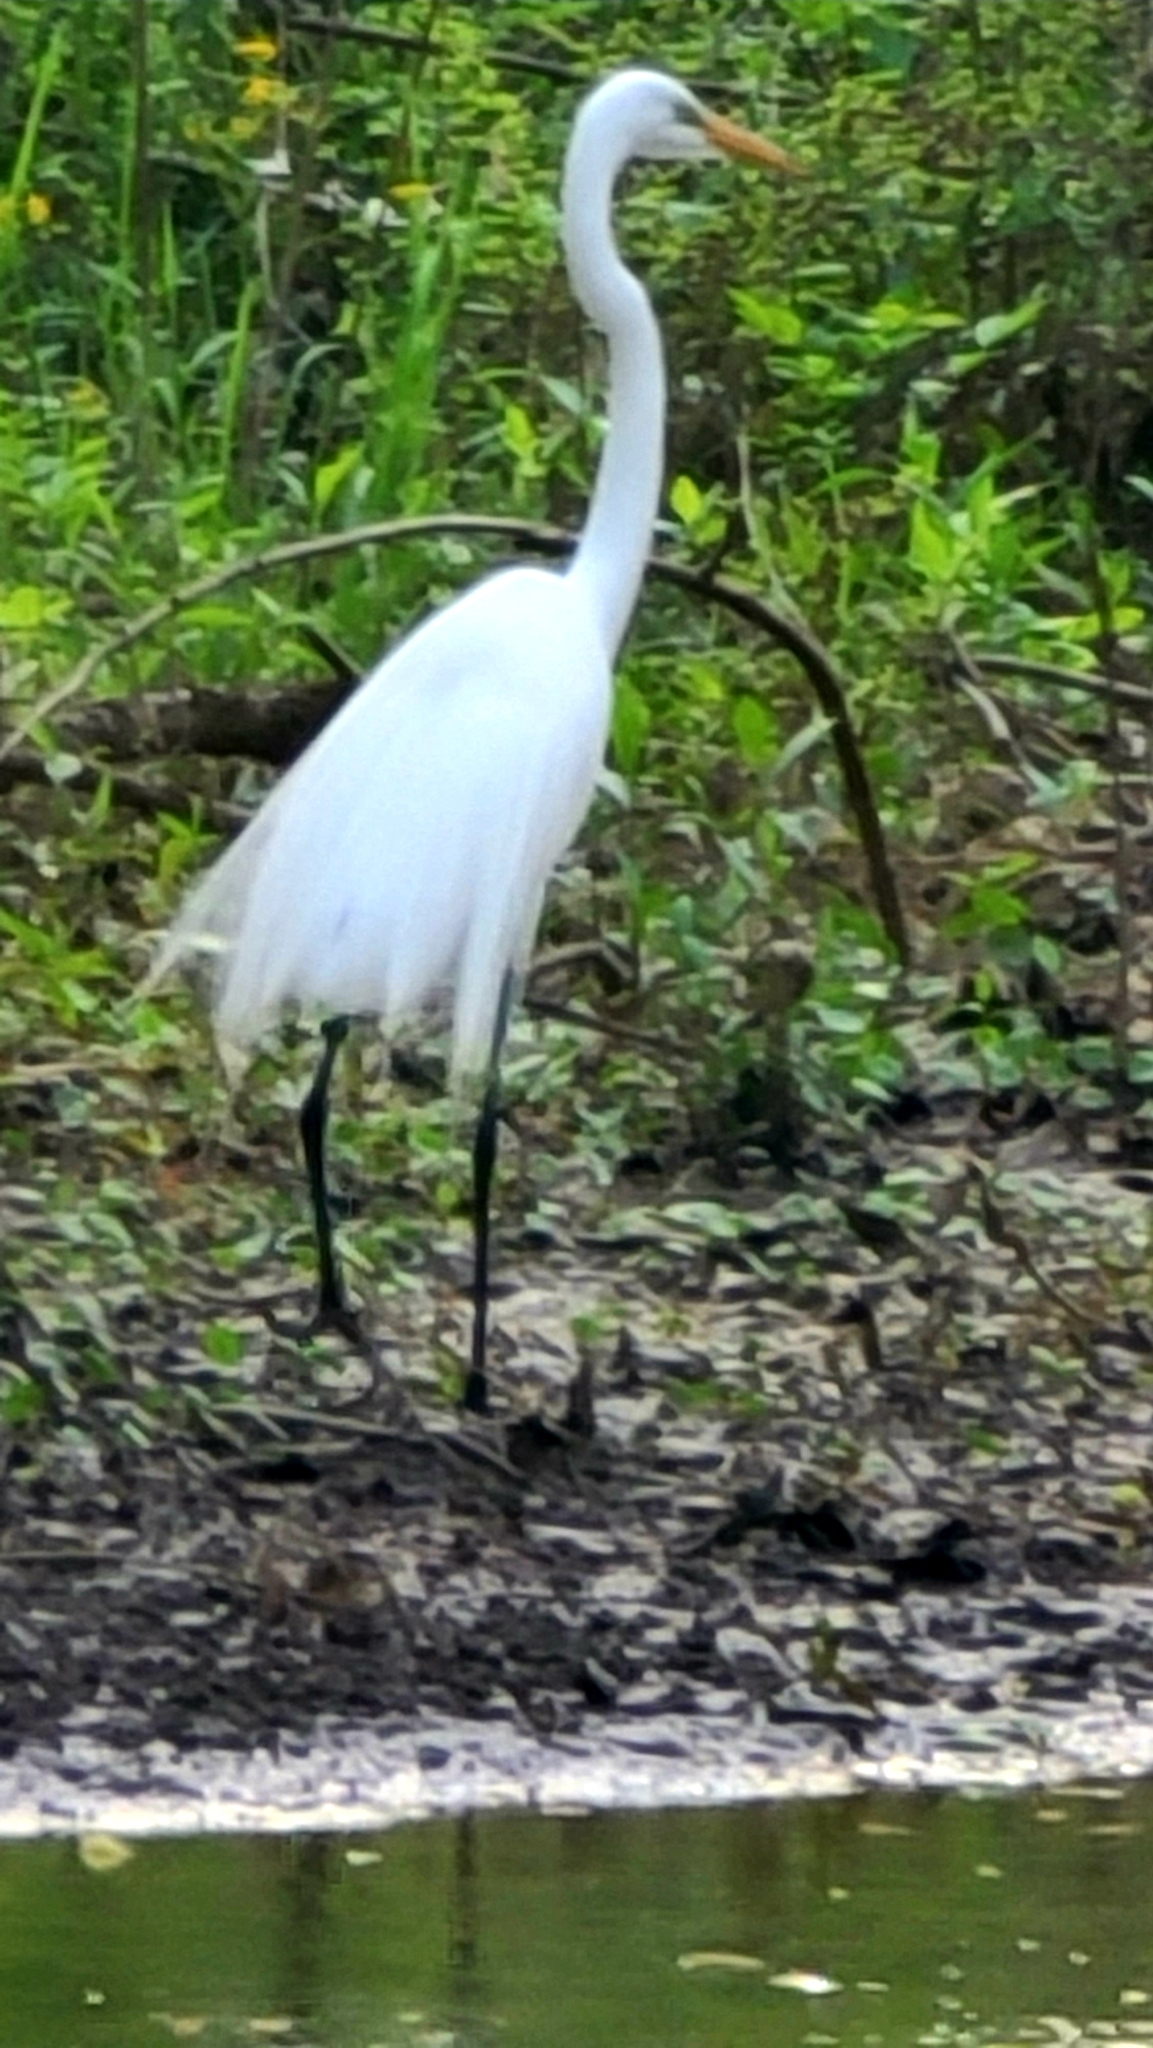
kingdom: Animalia
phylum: Chordata
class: Aves
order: Pelecaniformes
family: Ardeidae
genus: Ardea
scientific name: Ardea alba
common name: Great egret
